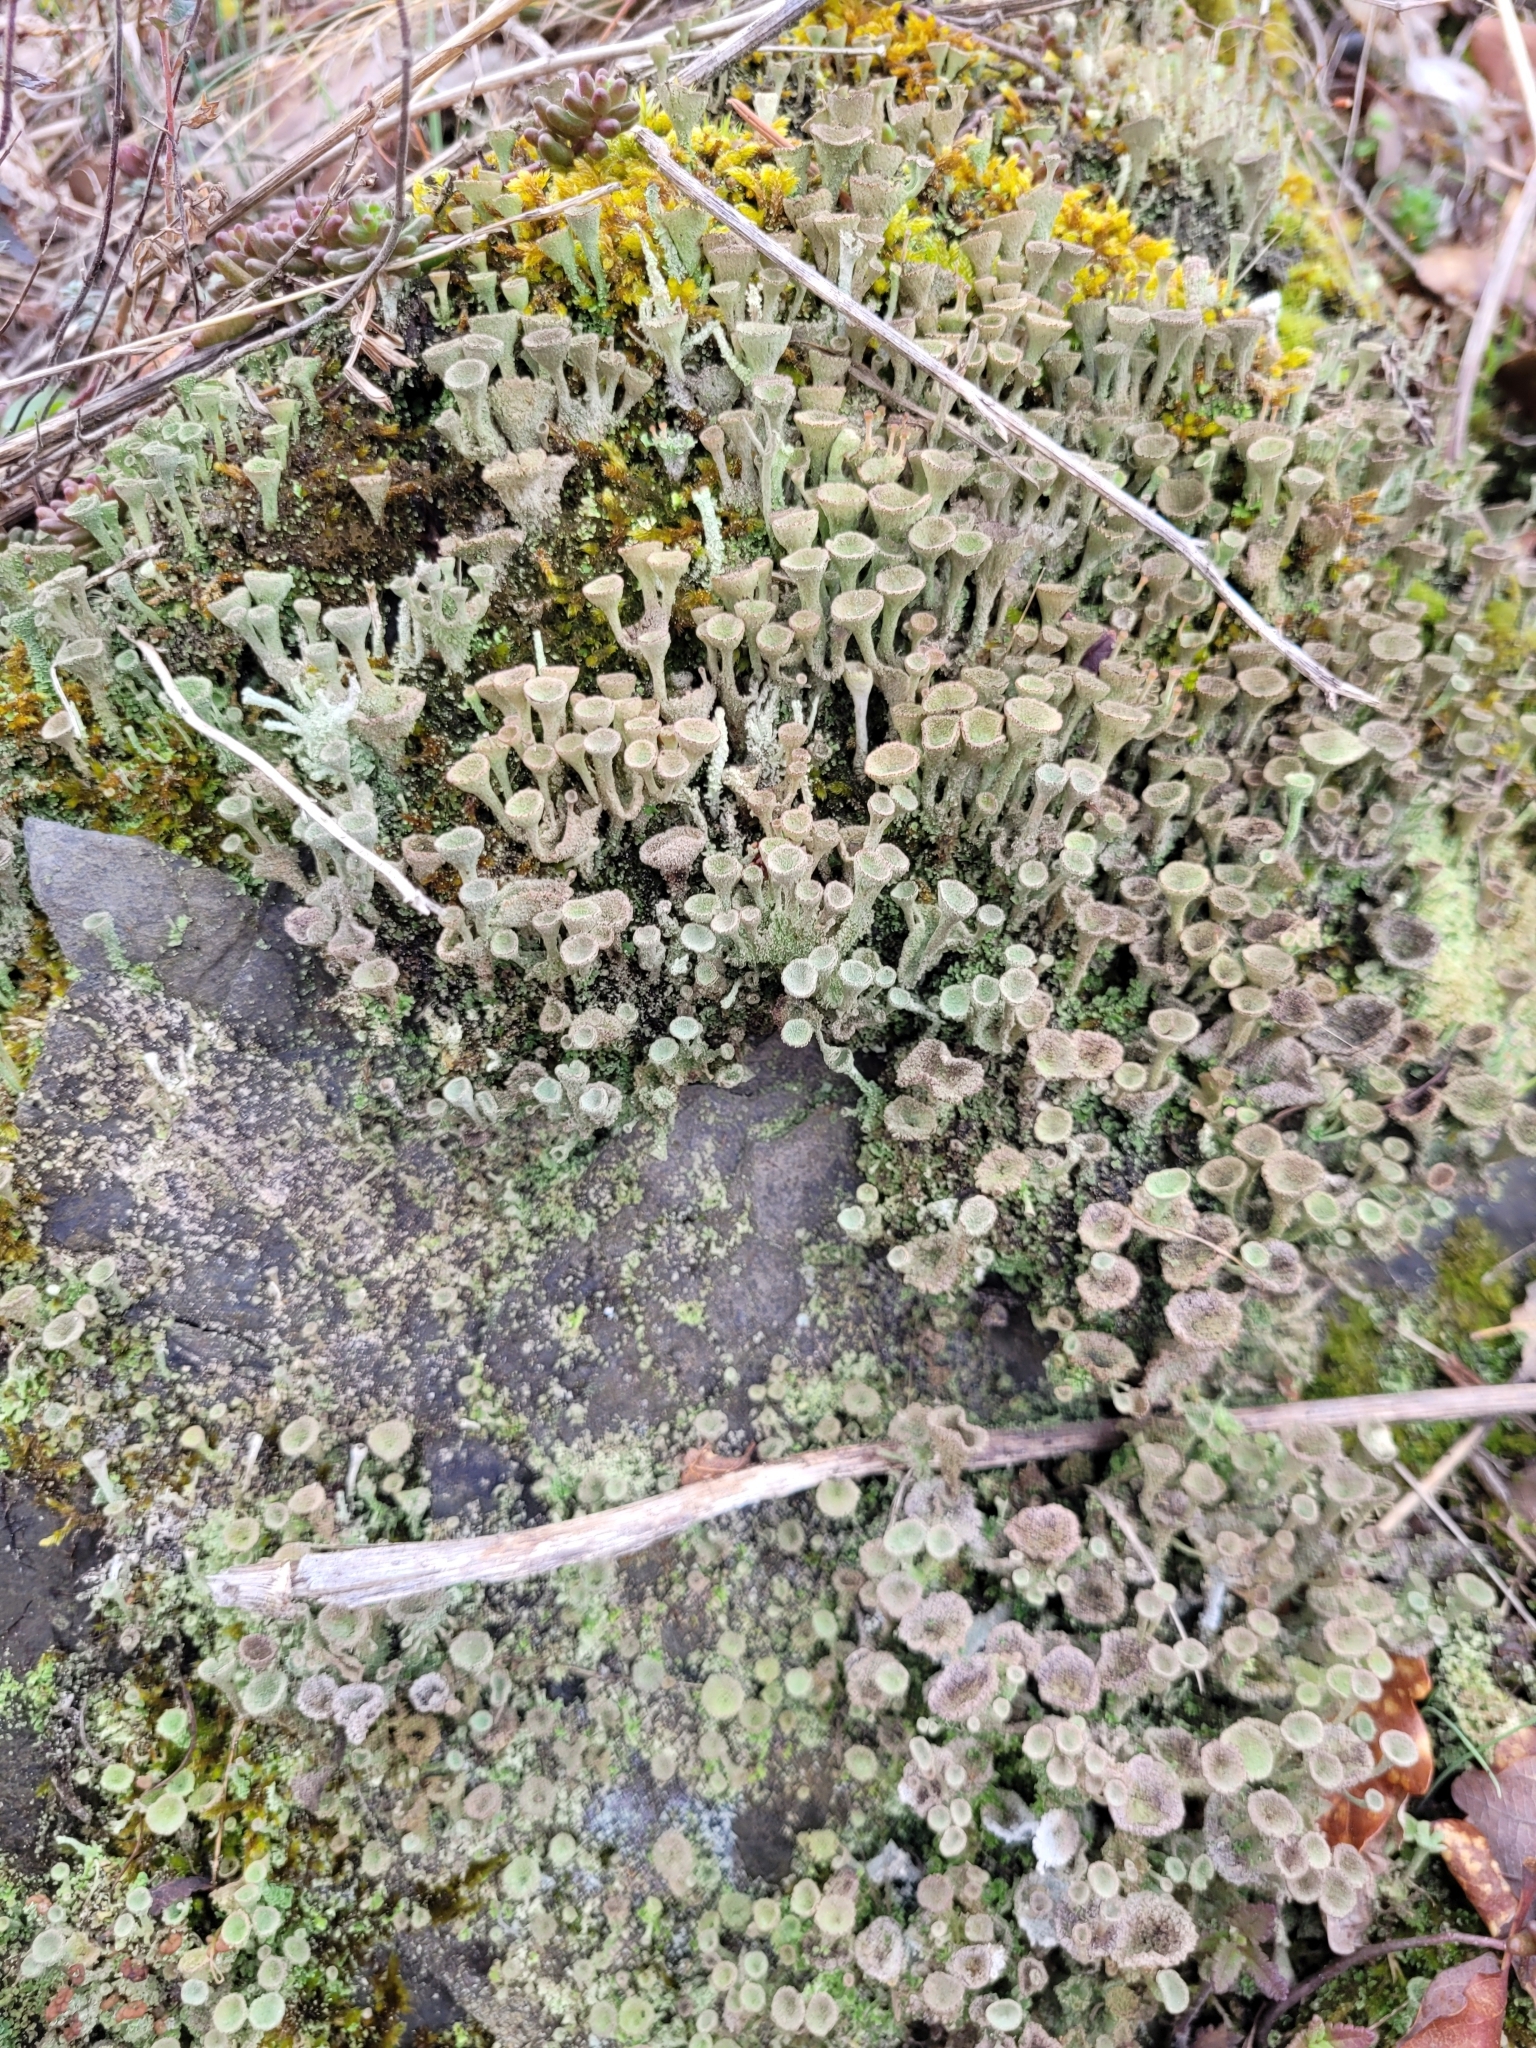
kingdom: Fungi
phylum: Ascomycota
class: Lecanoromycetes
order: Lecanorales
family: Cladoniaceae
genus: Cladonia
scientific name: Cladonia
